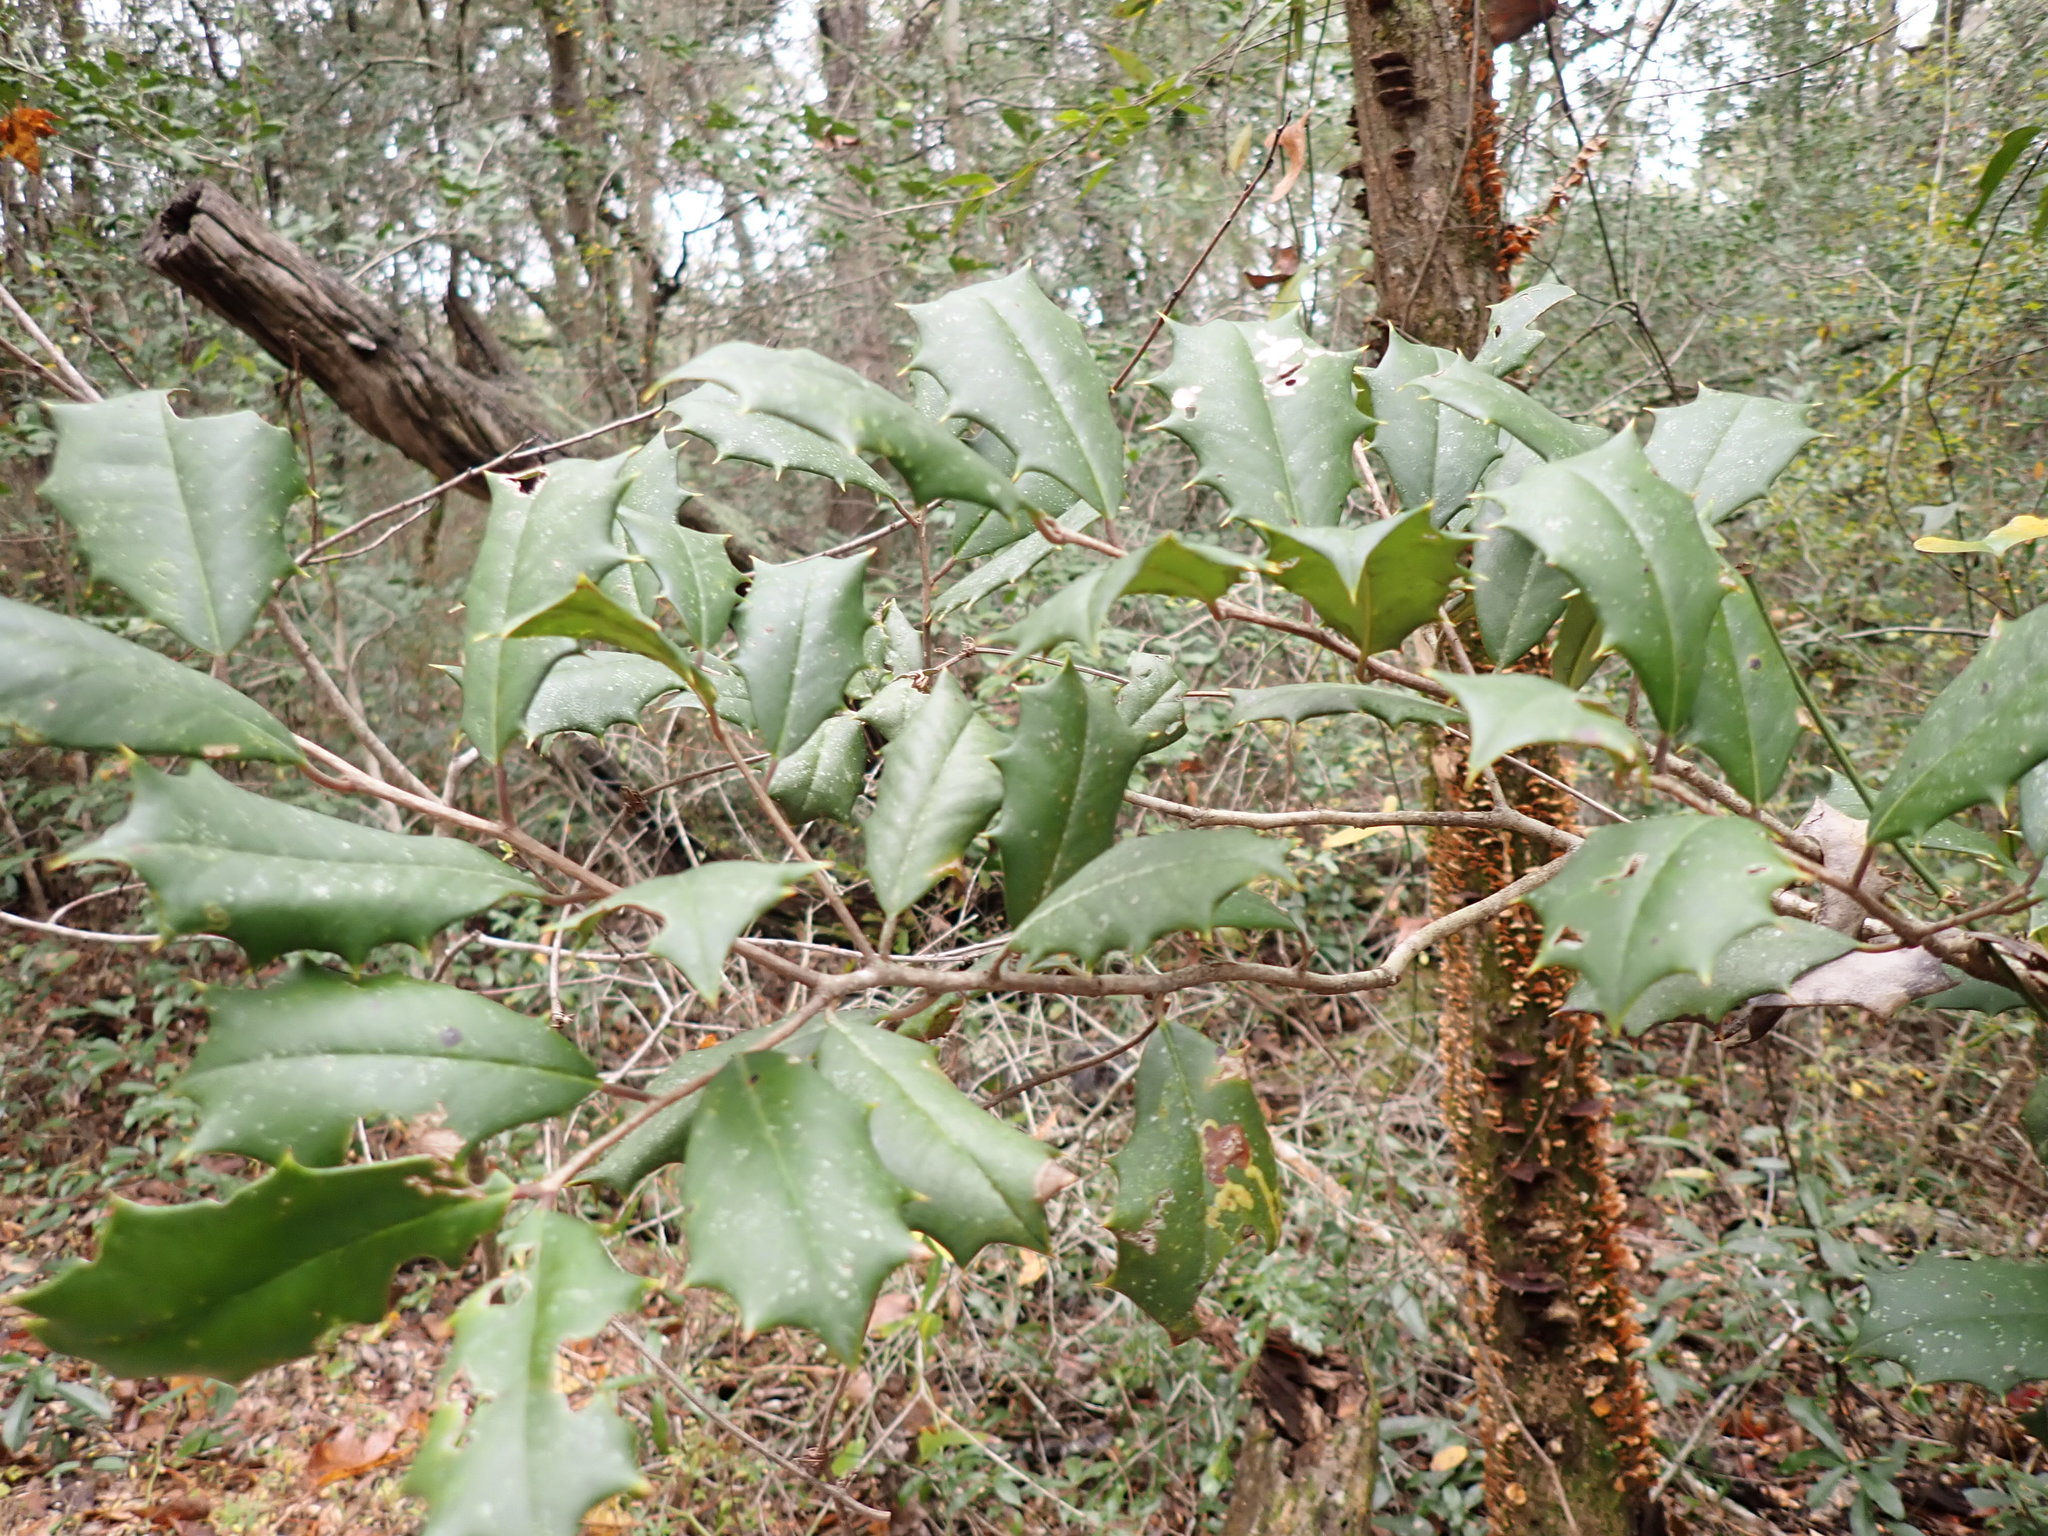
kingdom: Plantae
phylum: Tracheophyta
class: Magnoliopsida
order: Aquifoliales
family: Aquifoliaceae
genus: Ilex
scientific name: Ilex opaca
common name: American holly
